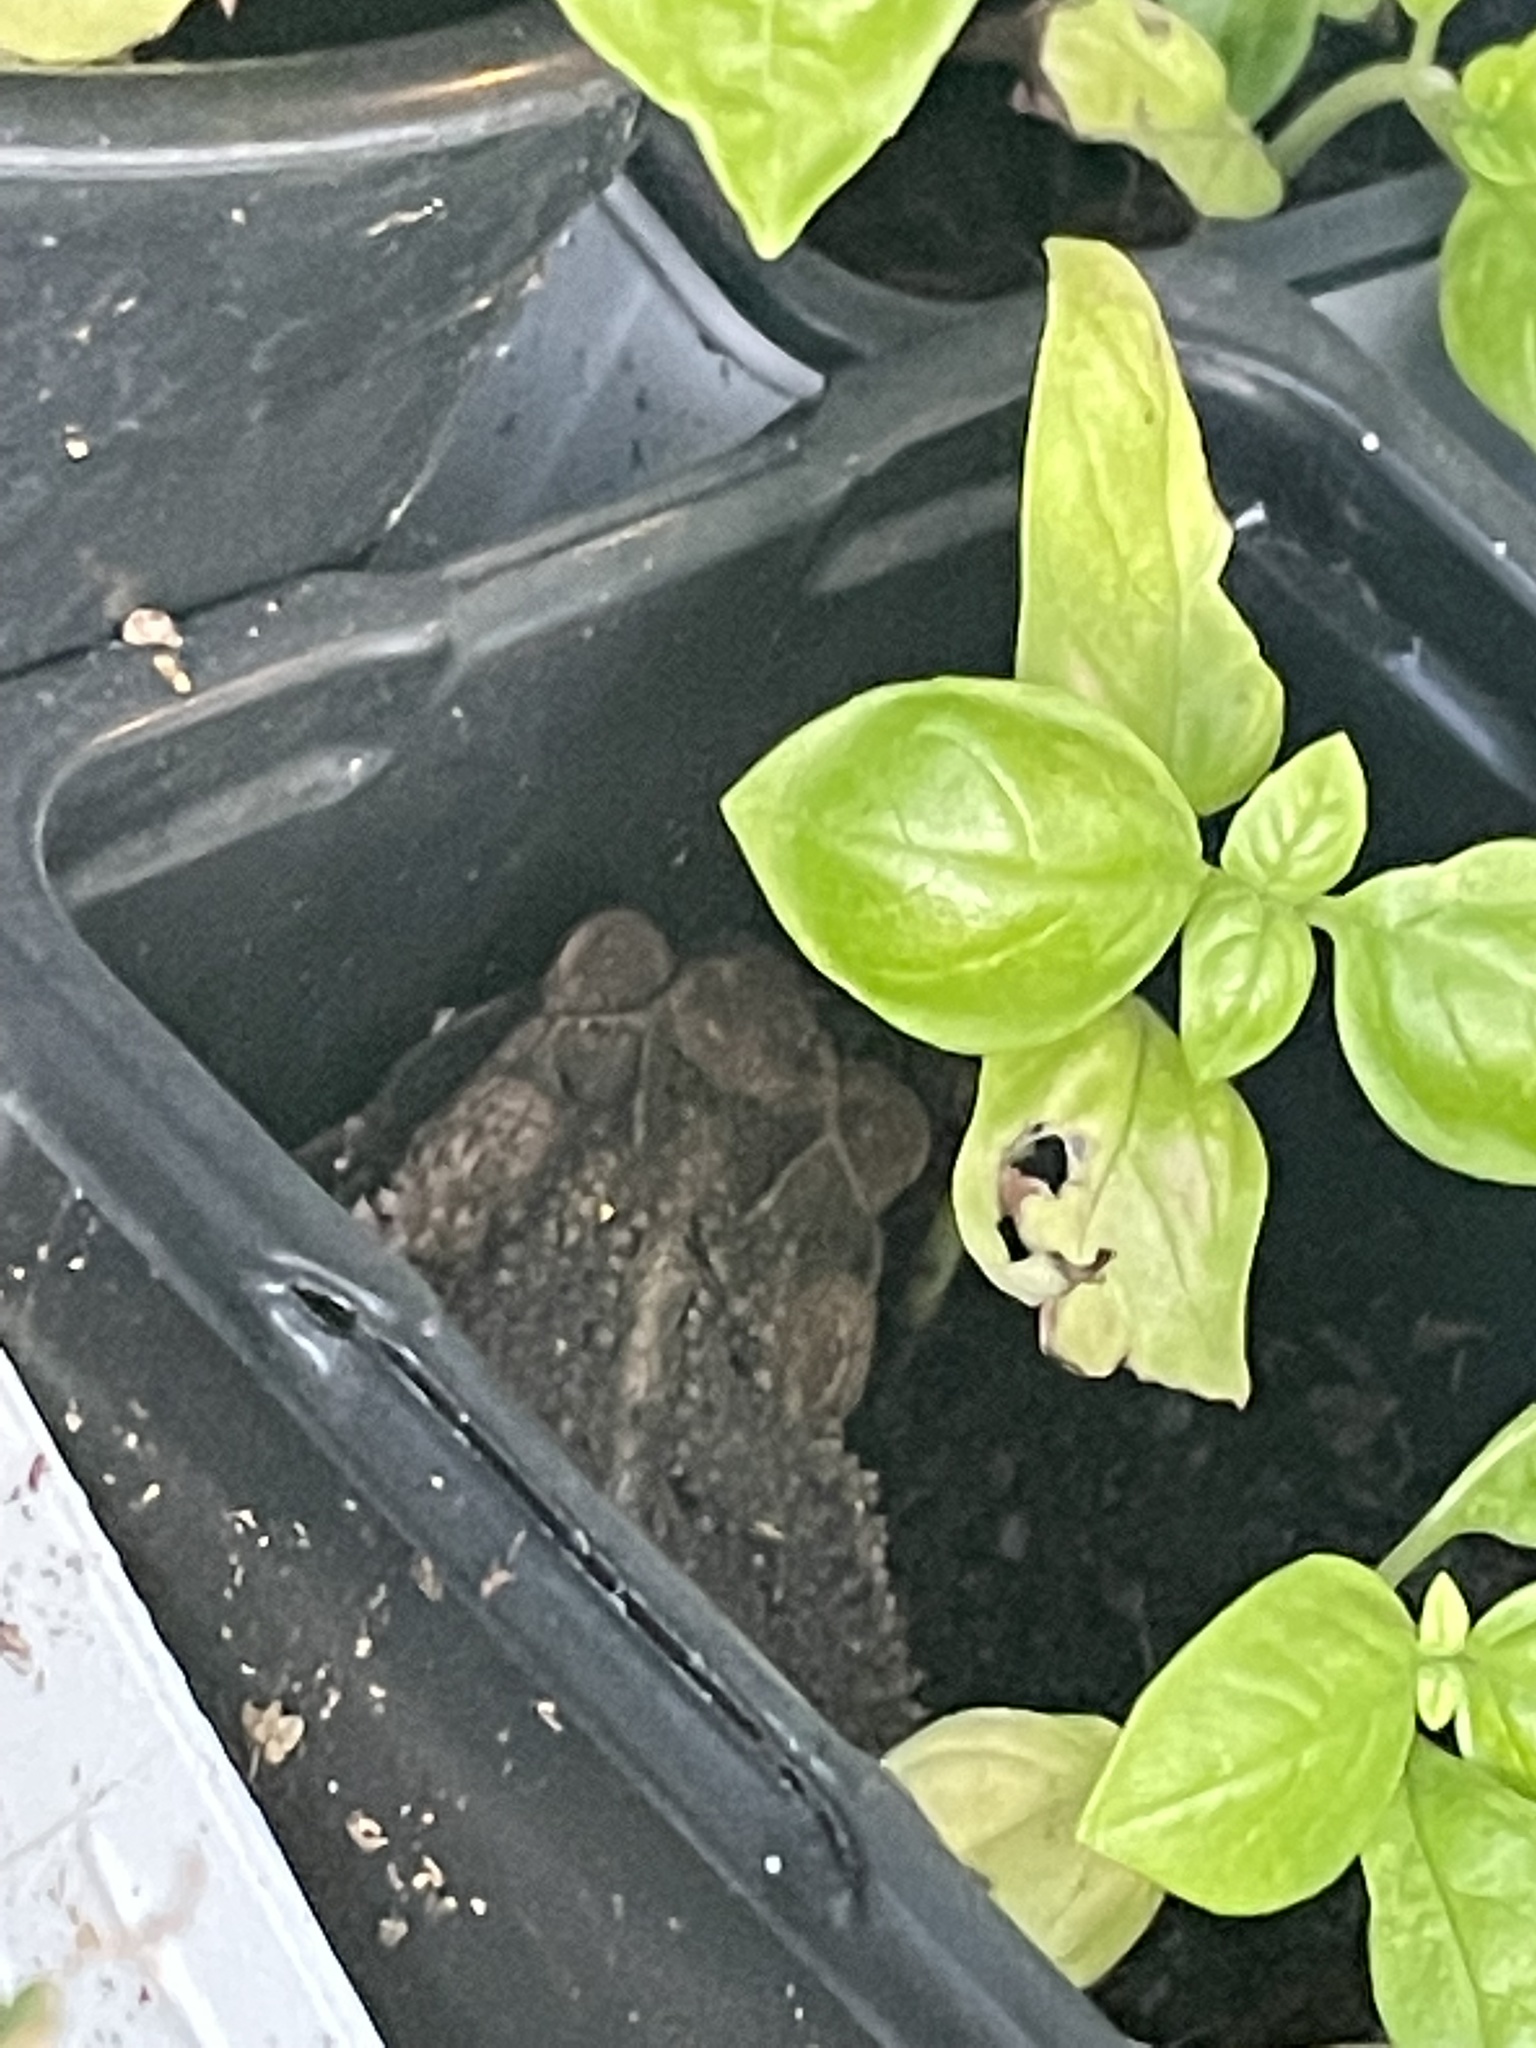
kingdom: Animalia
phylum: Chordata
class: Amphibia
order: Anura
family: Bufonidae
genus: Incilius
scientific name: Incilius nebulifer
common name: Gulf coast toad
